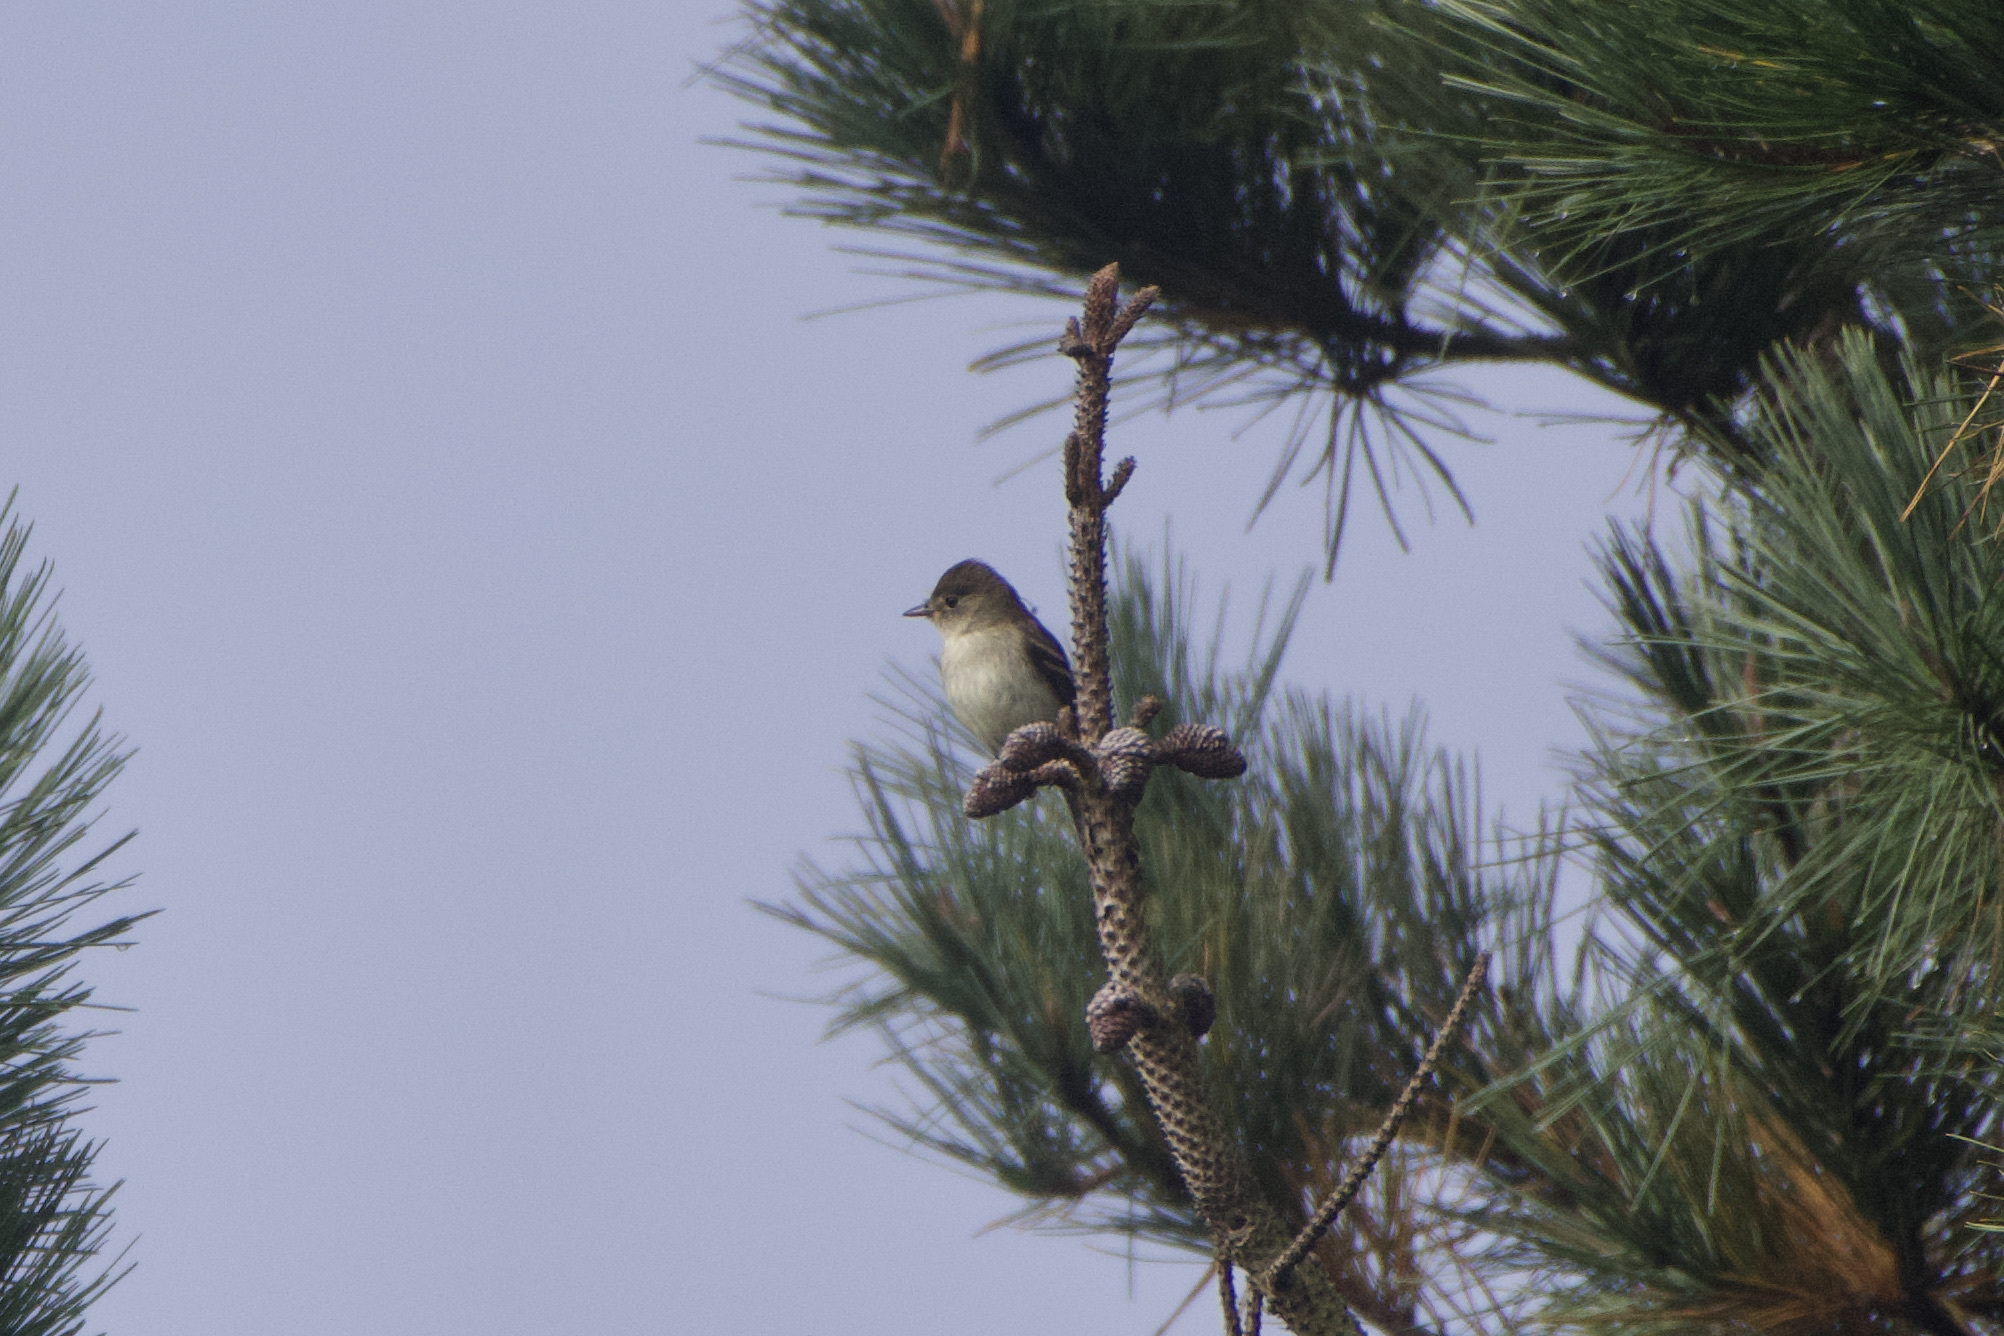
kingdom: Animalia
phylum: Chordata
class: Aves
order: Passeriformes
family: Tyrannidae
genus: Empidonax
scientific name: Empidonax traillii
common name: Willow flycatcher
